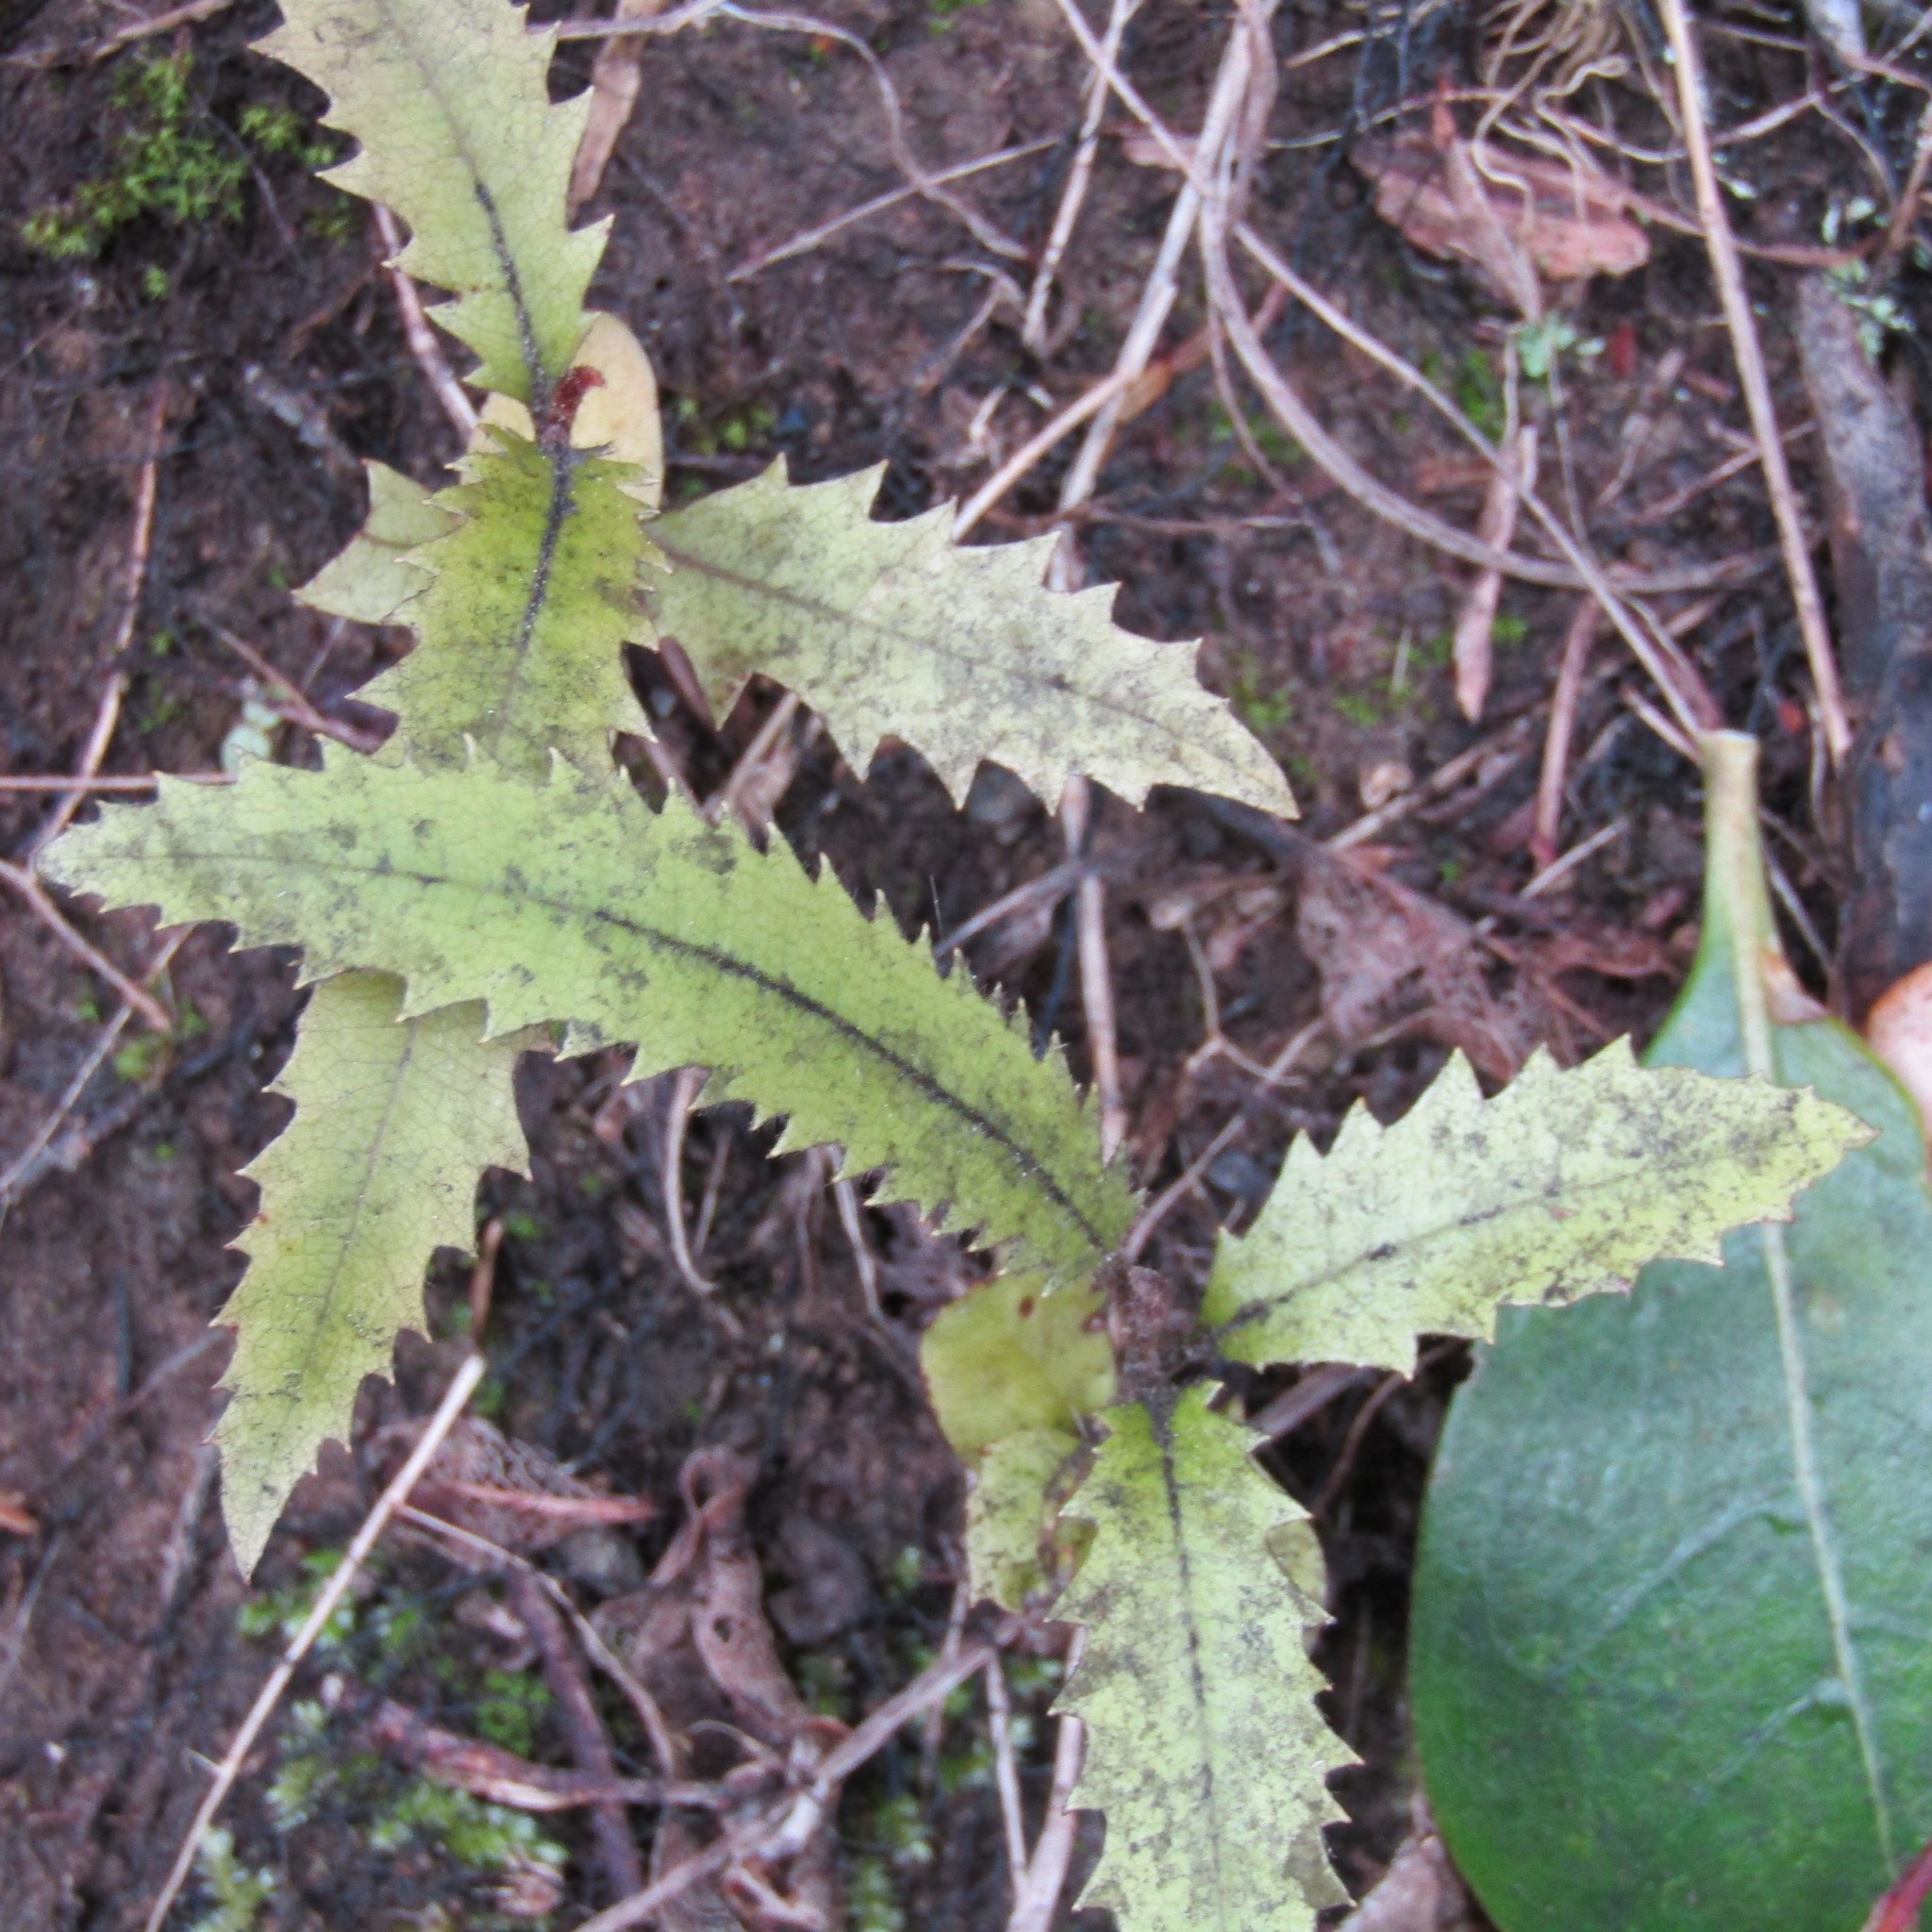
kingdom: Plantae
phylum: Tracheophyta
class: Magnoliopsida
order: Proteales
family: Proteaceae
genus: Knightia
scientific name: Knightia excelsa
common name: New zealand-honeysuckle
